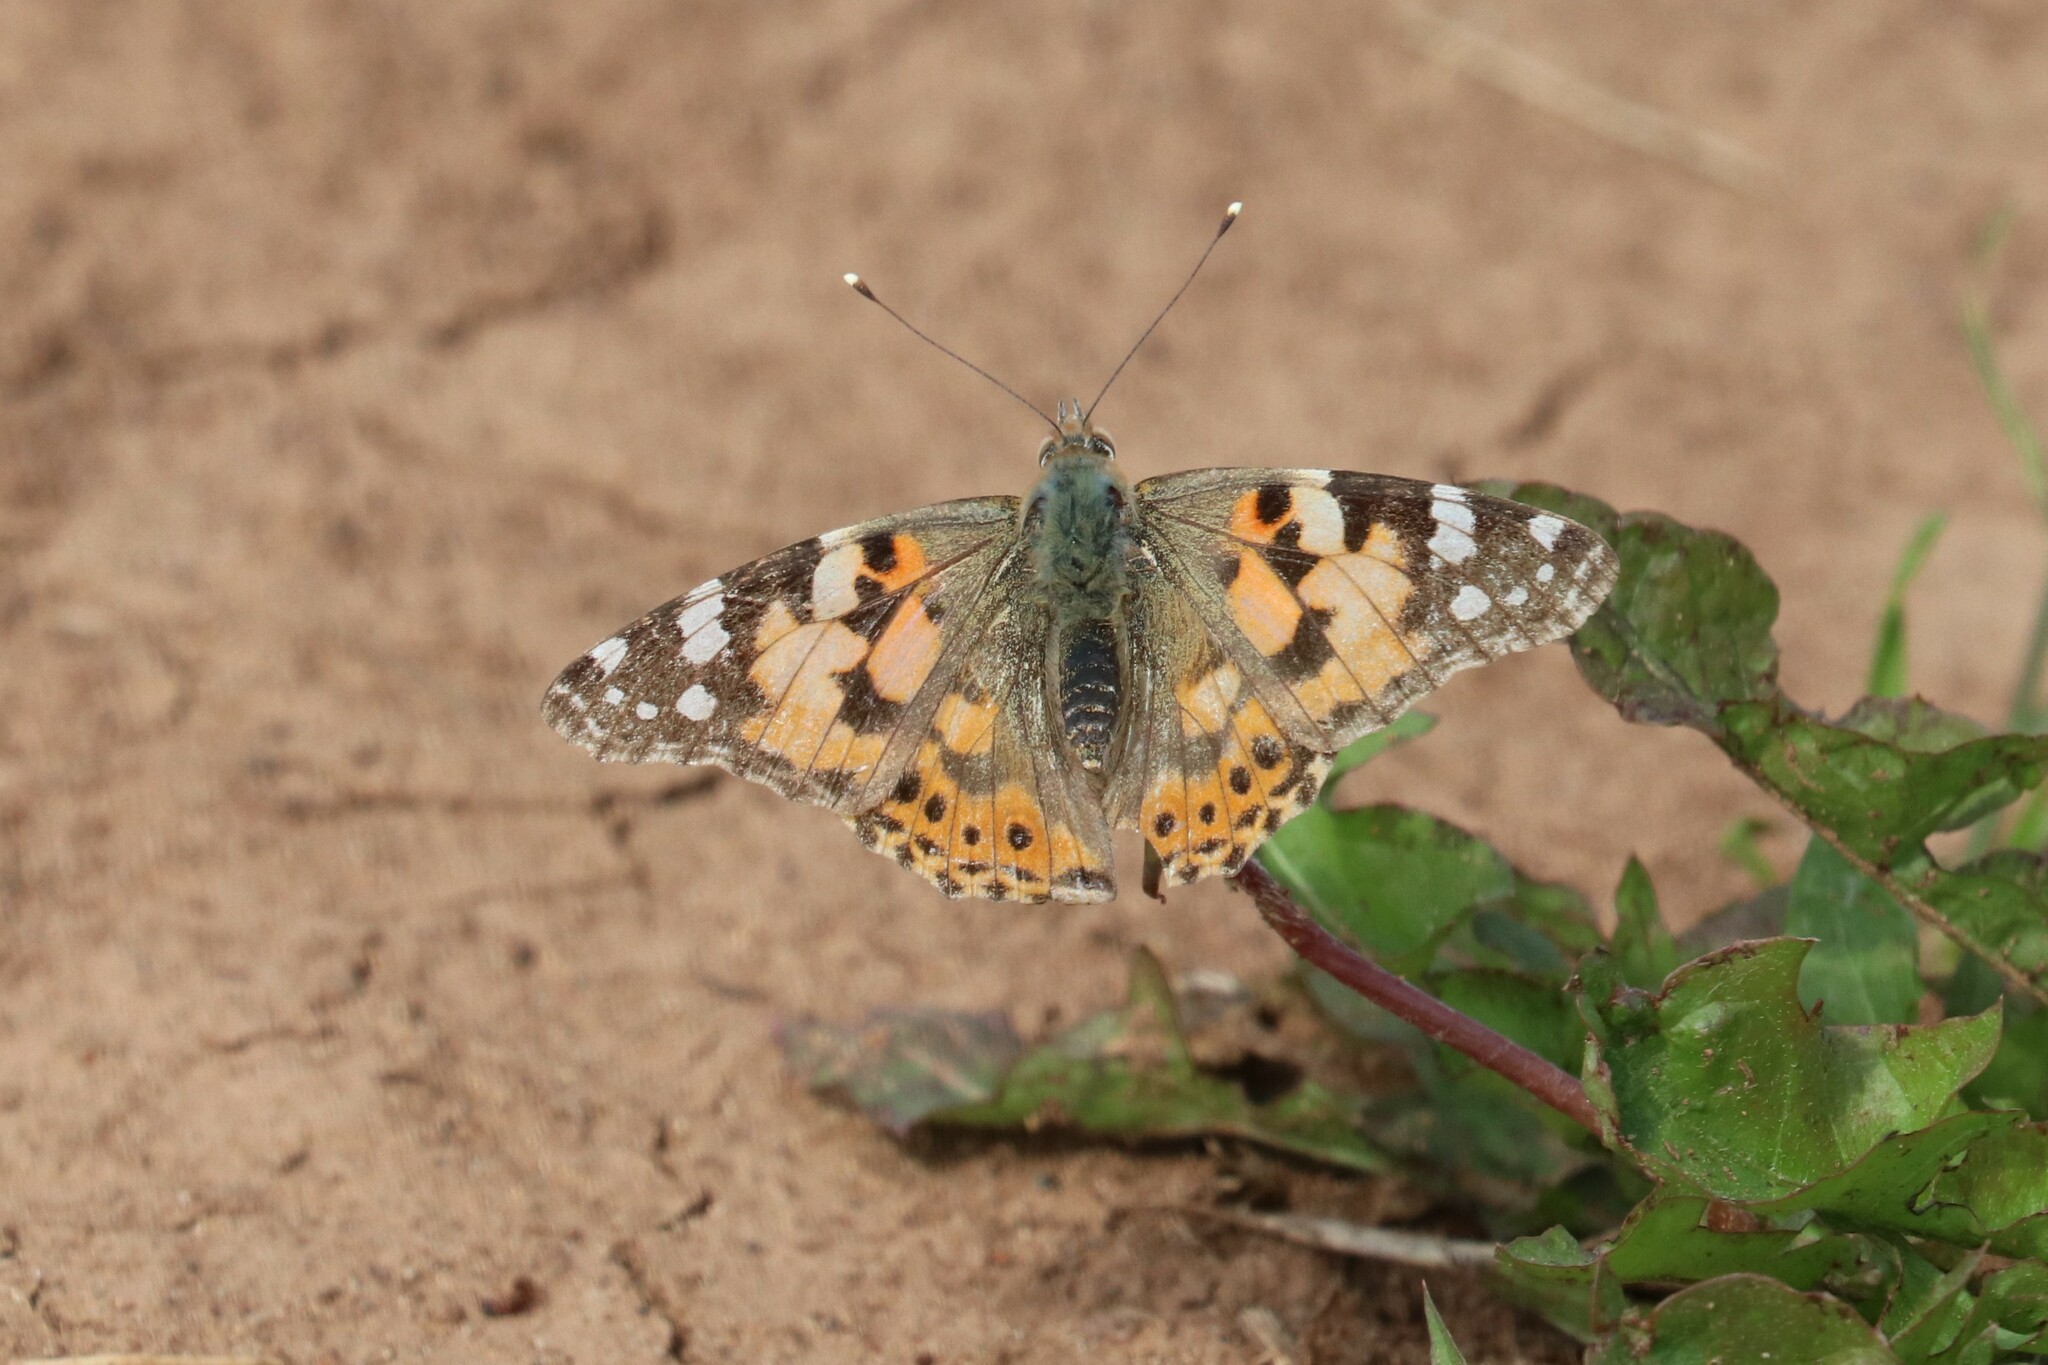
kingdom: Animalia
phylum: Arthropoda
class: Insecta
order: Lepidoptera
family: Nymphalidae
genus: Vanessa
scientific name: Vanessa cardui
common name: Painted lady
